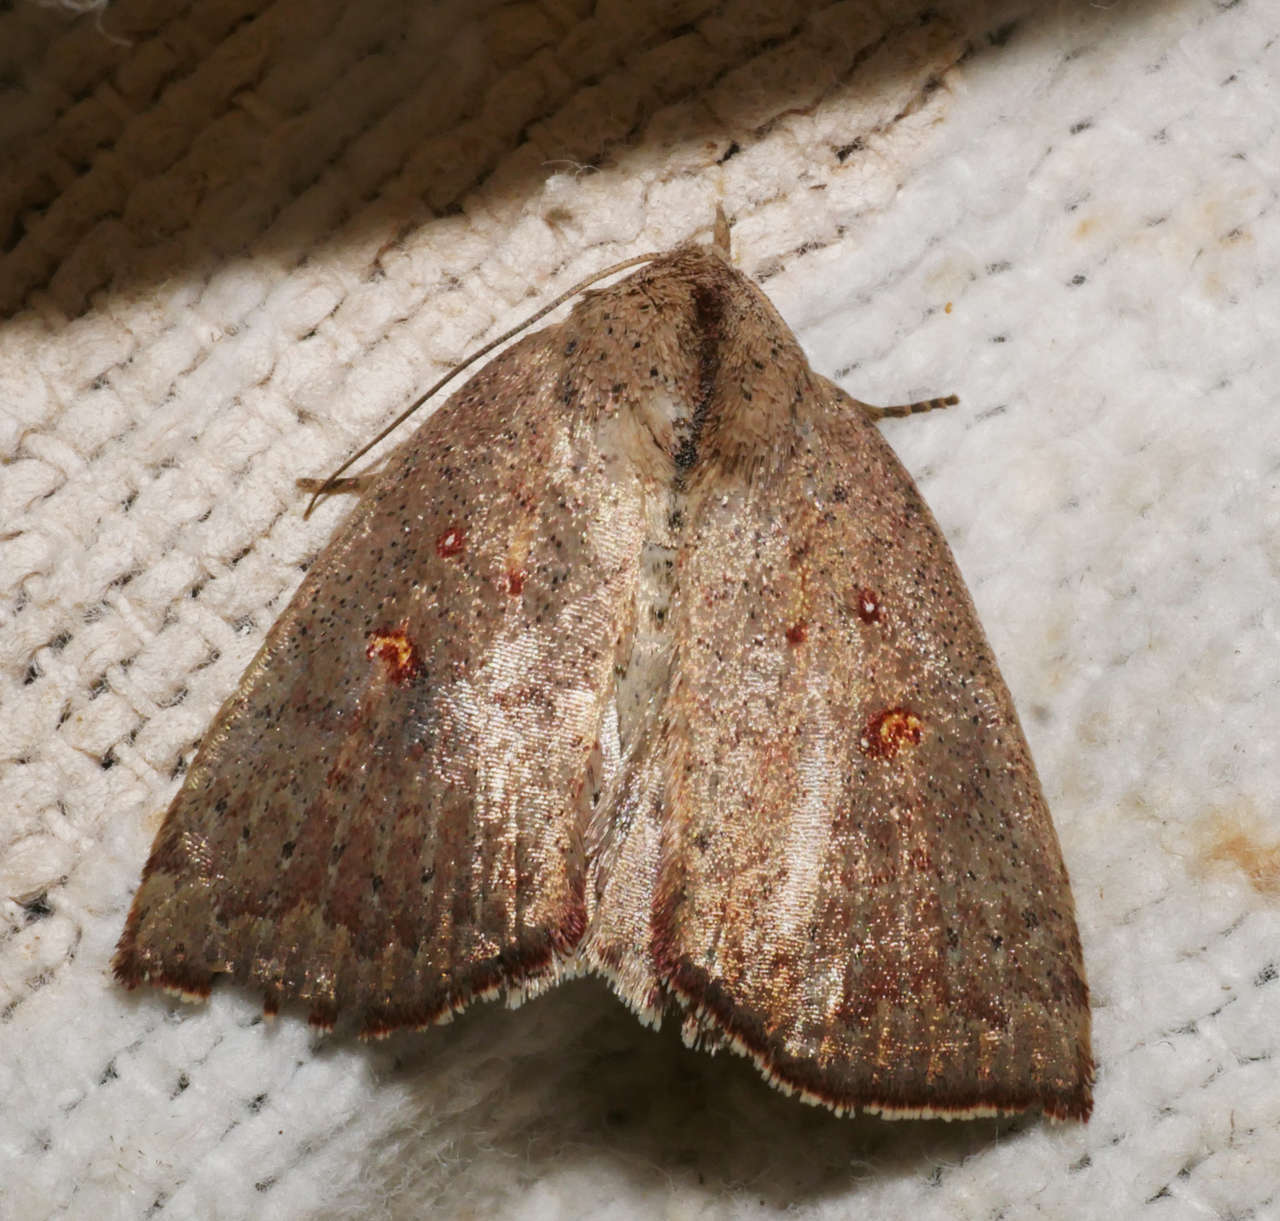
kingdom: Animalia
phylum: Arthropoda
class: Insecta
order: Lepidoptera
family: Noctuidae
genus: Lophocalama
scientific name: Lophocalama
